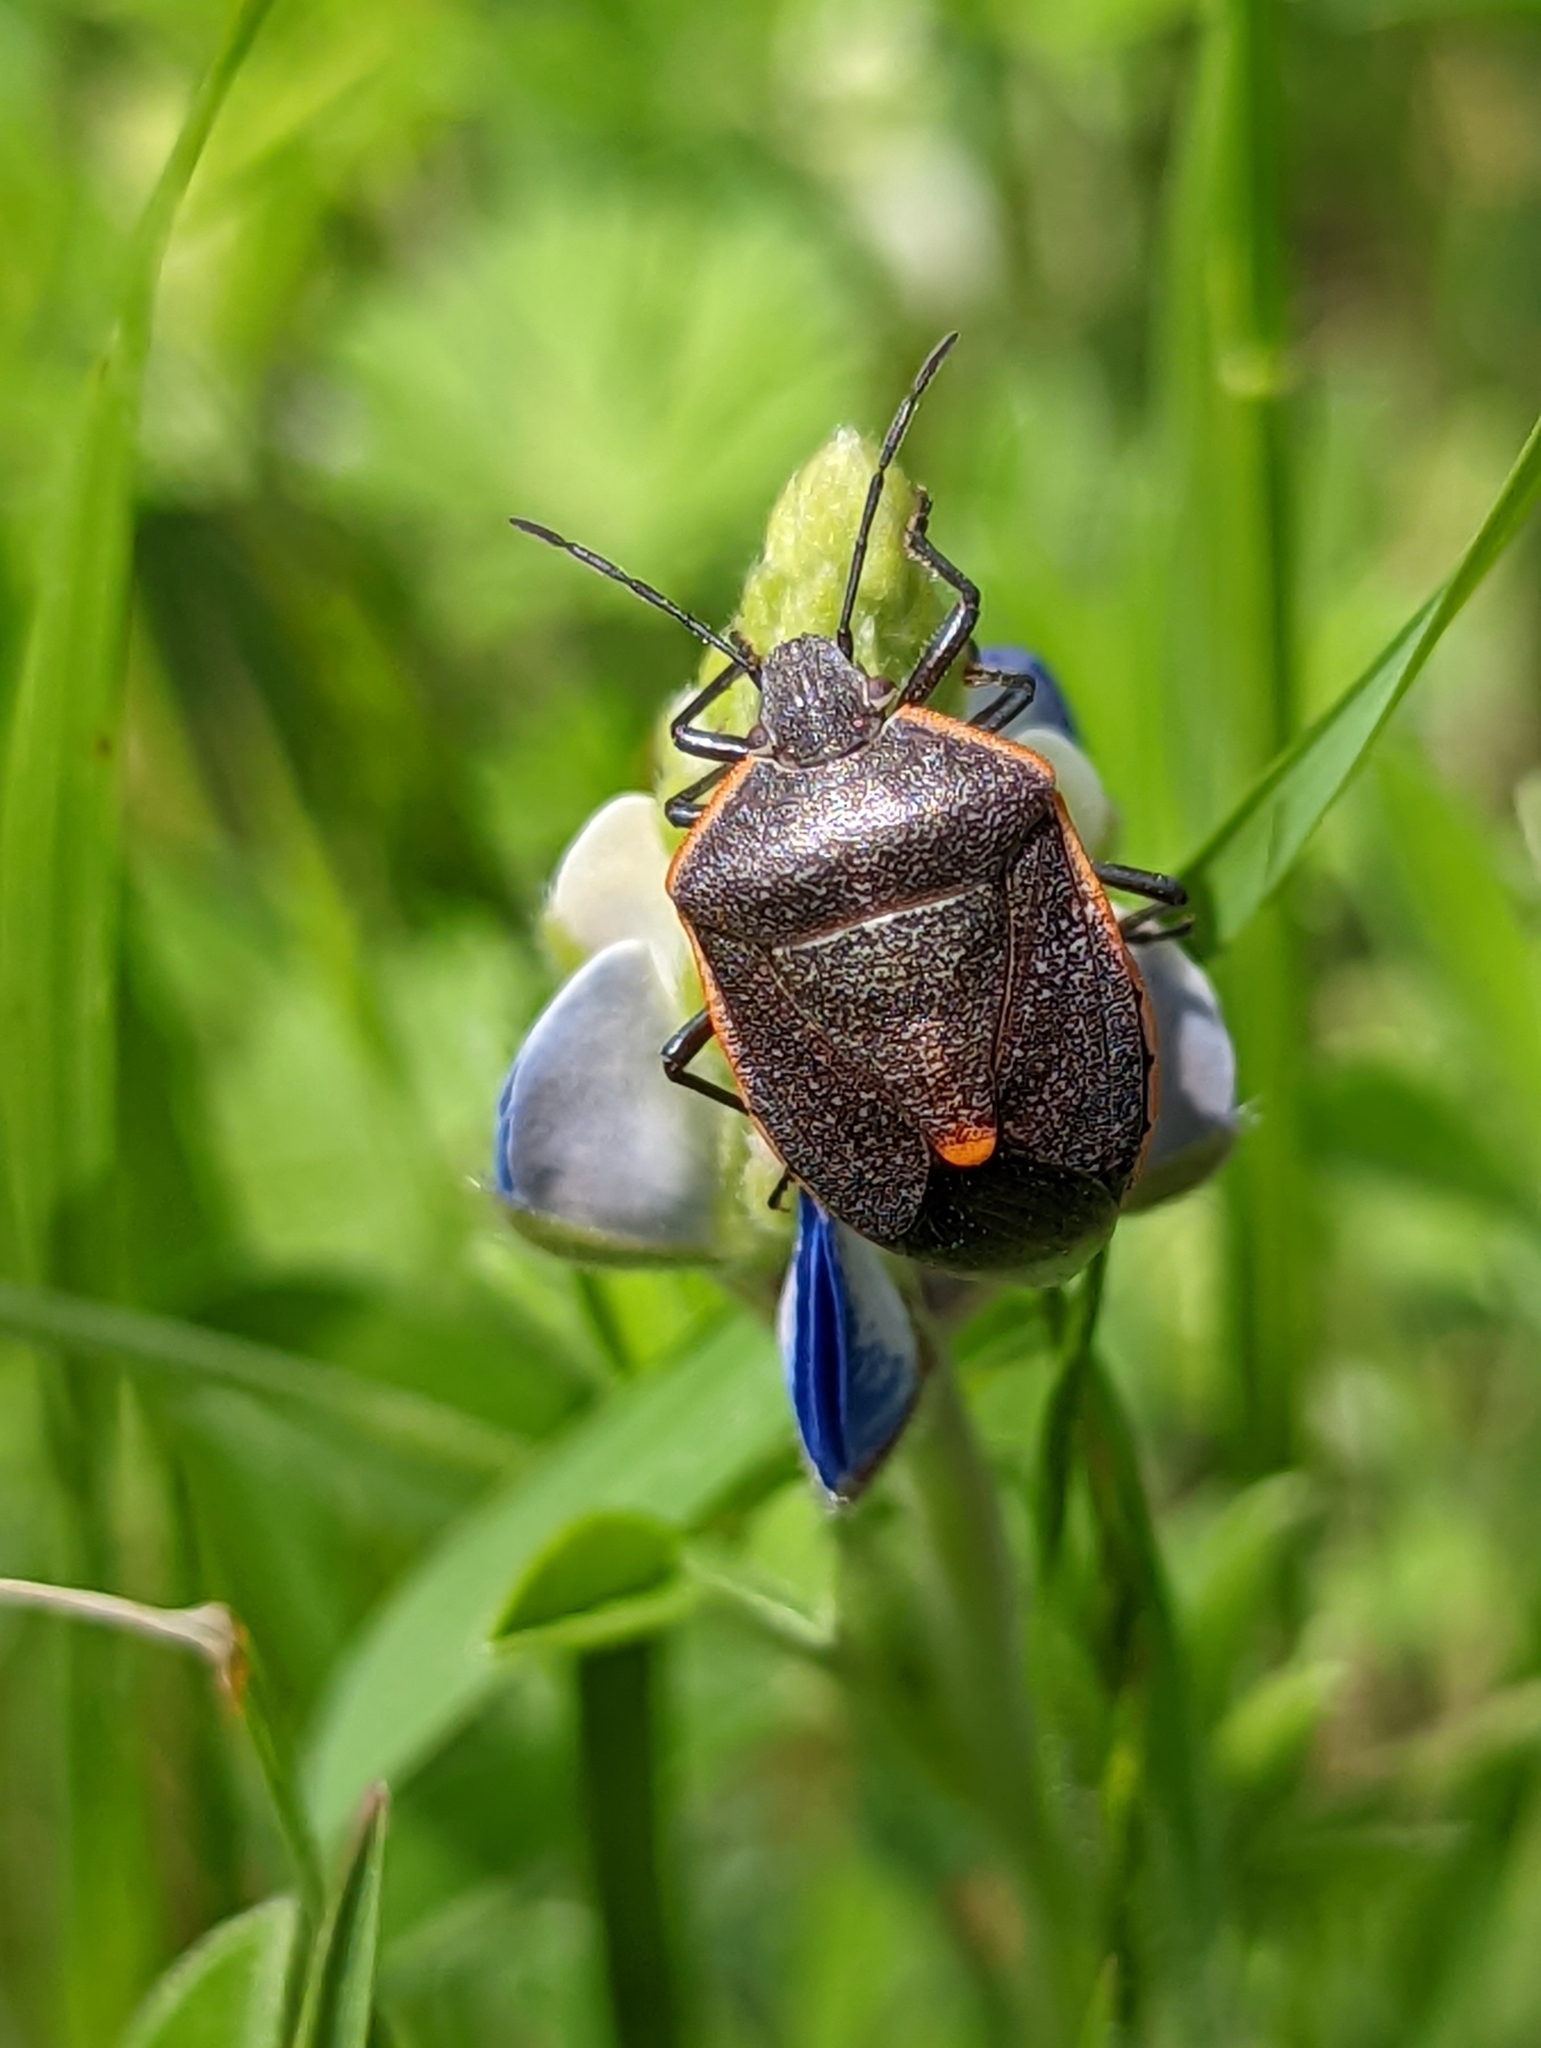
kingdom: Animalia
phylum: Arthropoda
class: Insecta
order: Hemiptera
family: Pentatomidae
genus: Chlorochroa
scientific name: Chlorochroa ligata
